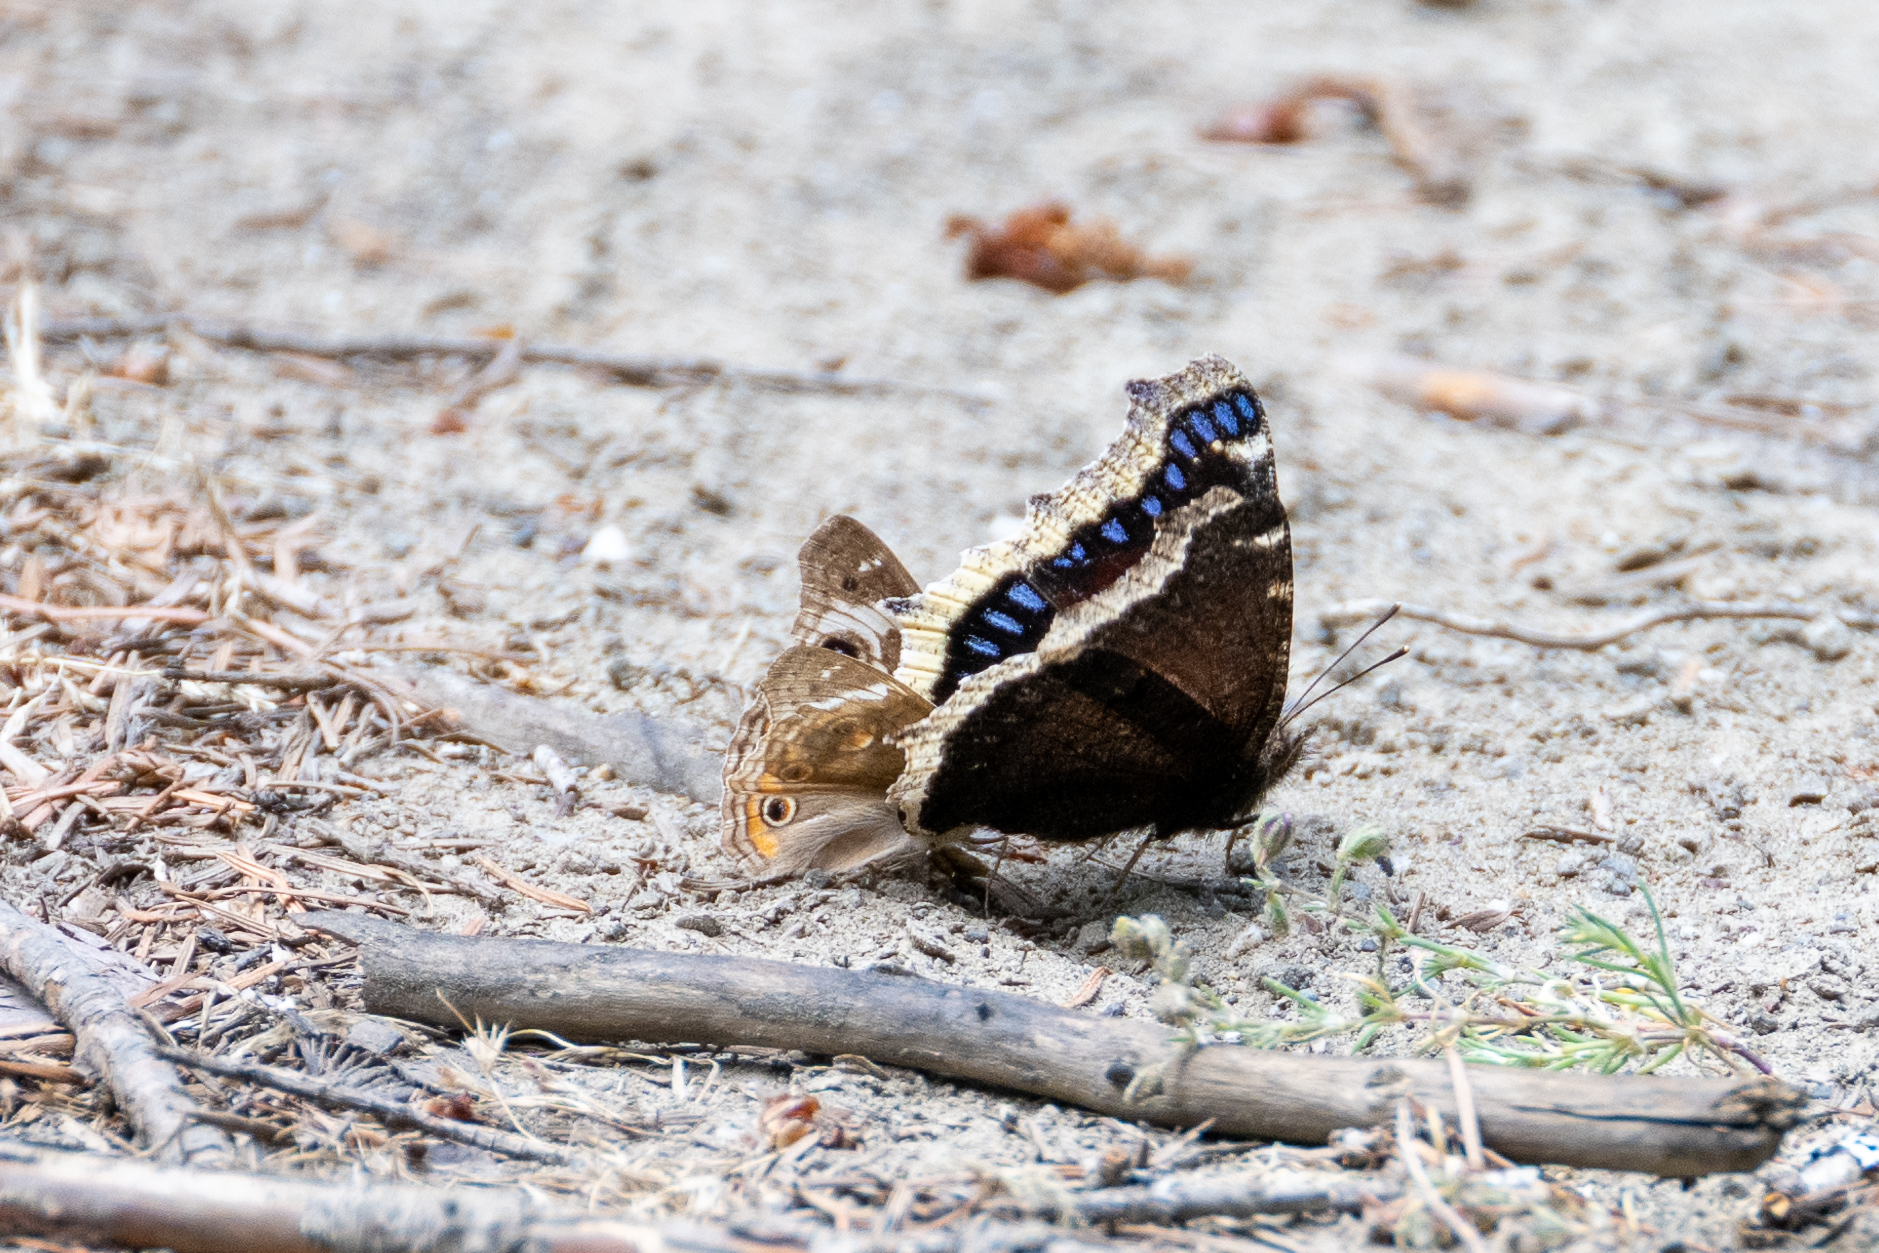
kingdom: Animalia
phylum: Arthropoda
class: Insecta
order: Lepidoptera
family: Nymphalidae
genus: Nymphalis
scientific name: Nymphalis antiopa
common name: Camberwell beauty
